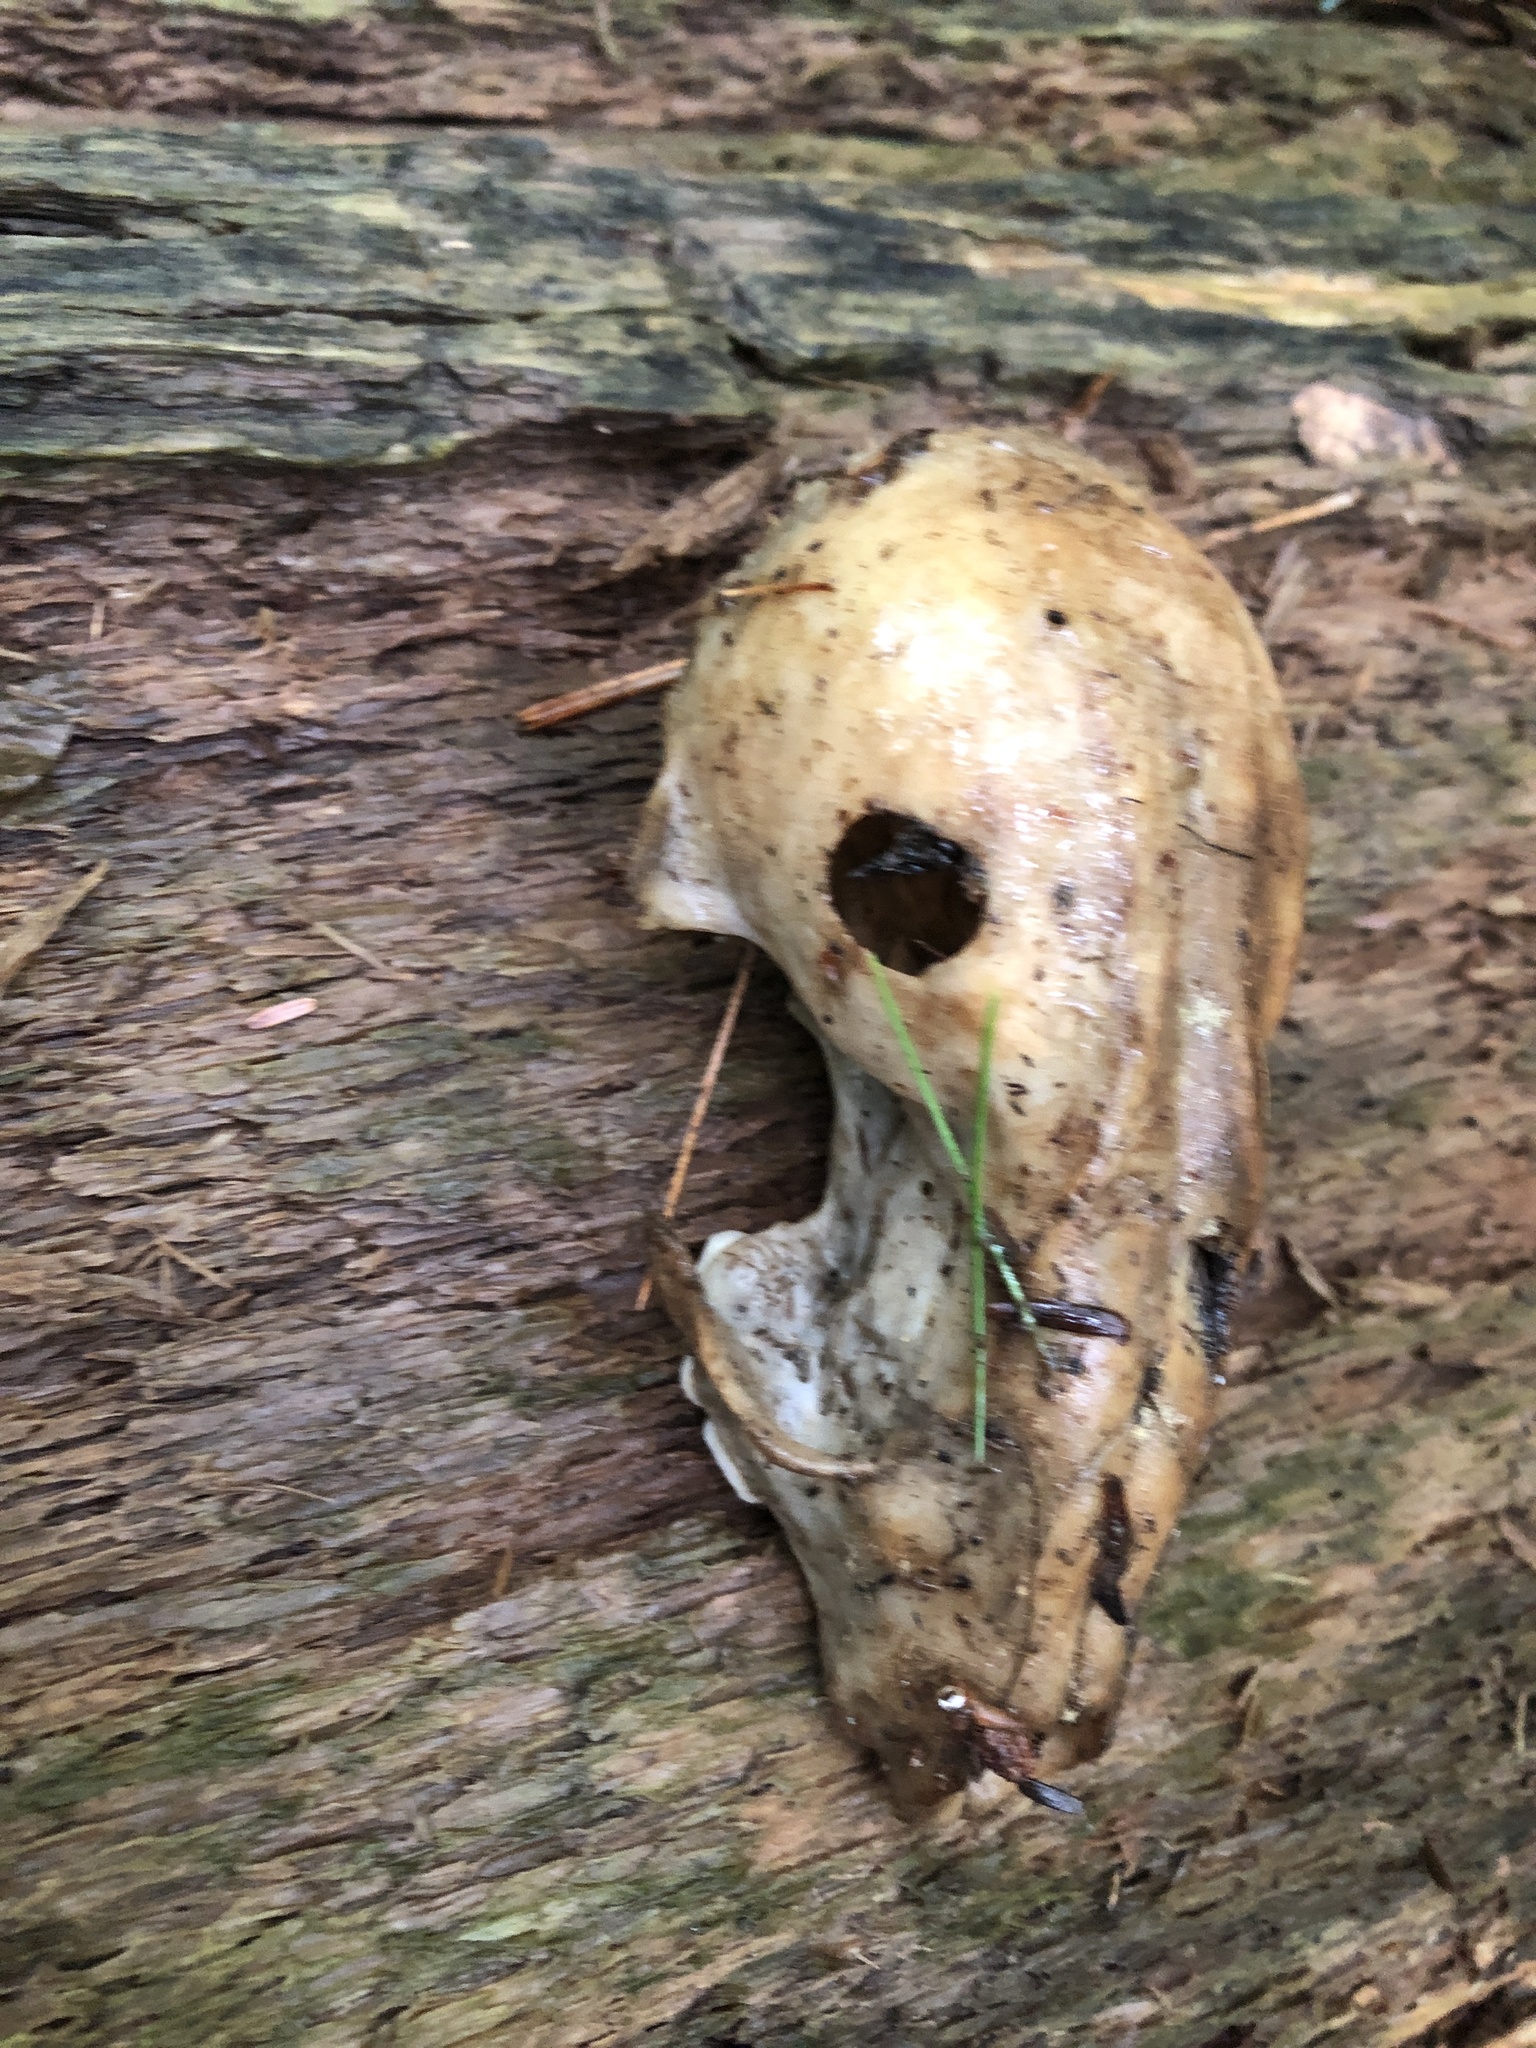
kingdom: Animalia
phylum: Chordata
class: Mammalia
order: Carnivora
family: Procyonidae
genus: Procyon
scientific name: Procyon lotor
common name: Raccoon
